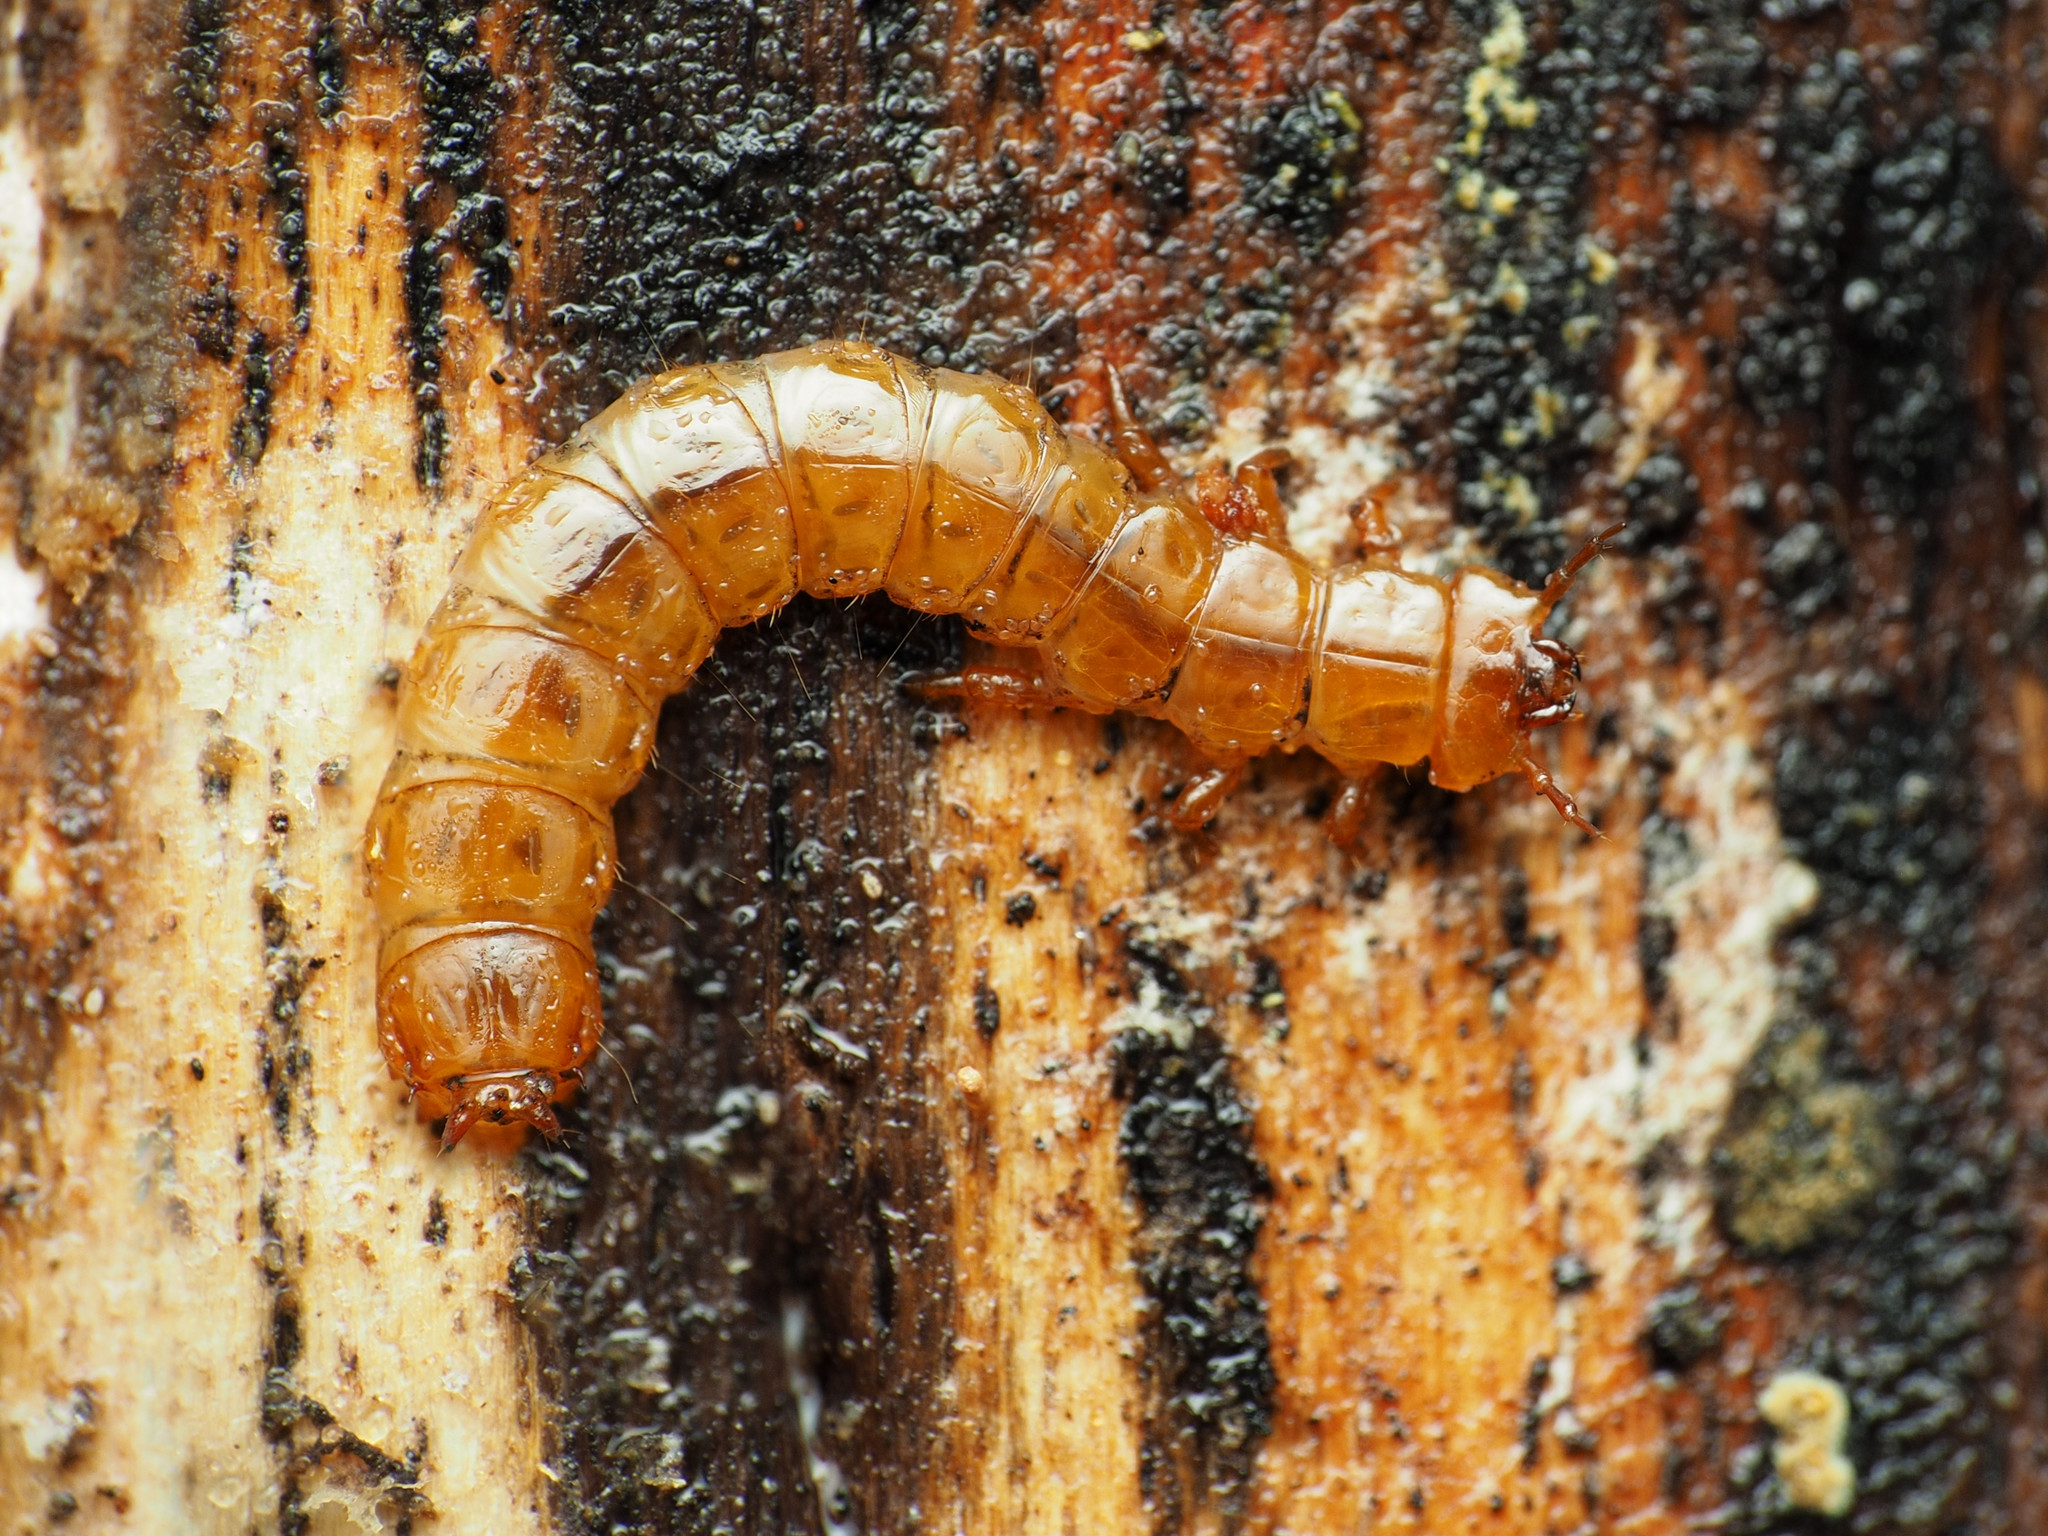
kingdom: Animalia
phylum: Arthropoda
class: Insecta
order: Coleoptera
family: Cucujidae
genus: Cucujus
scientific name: Cucujus clavipes
